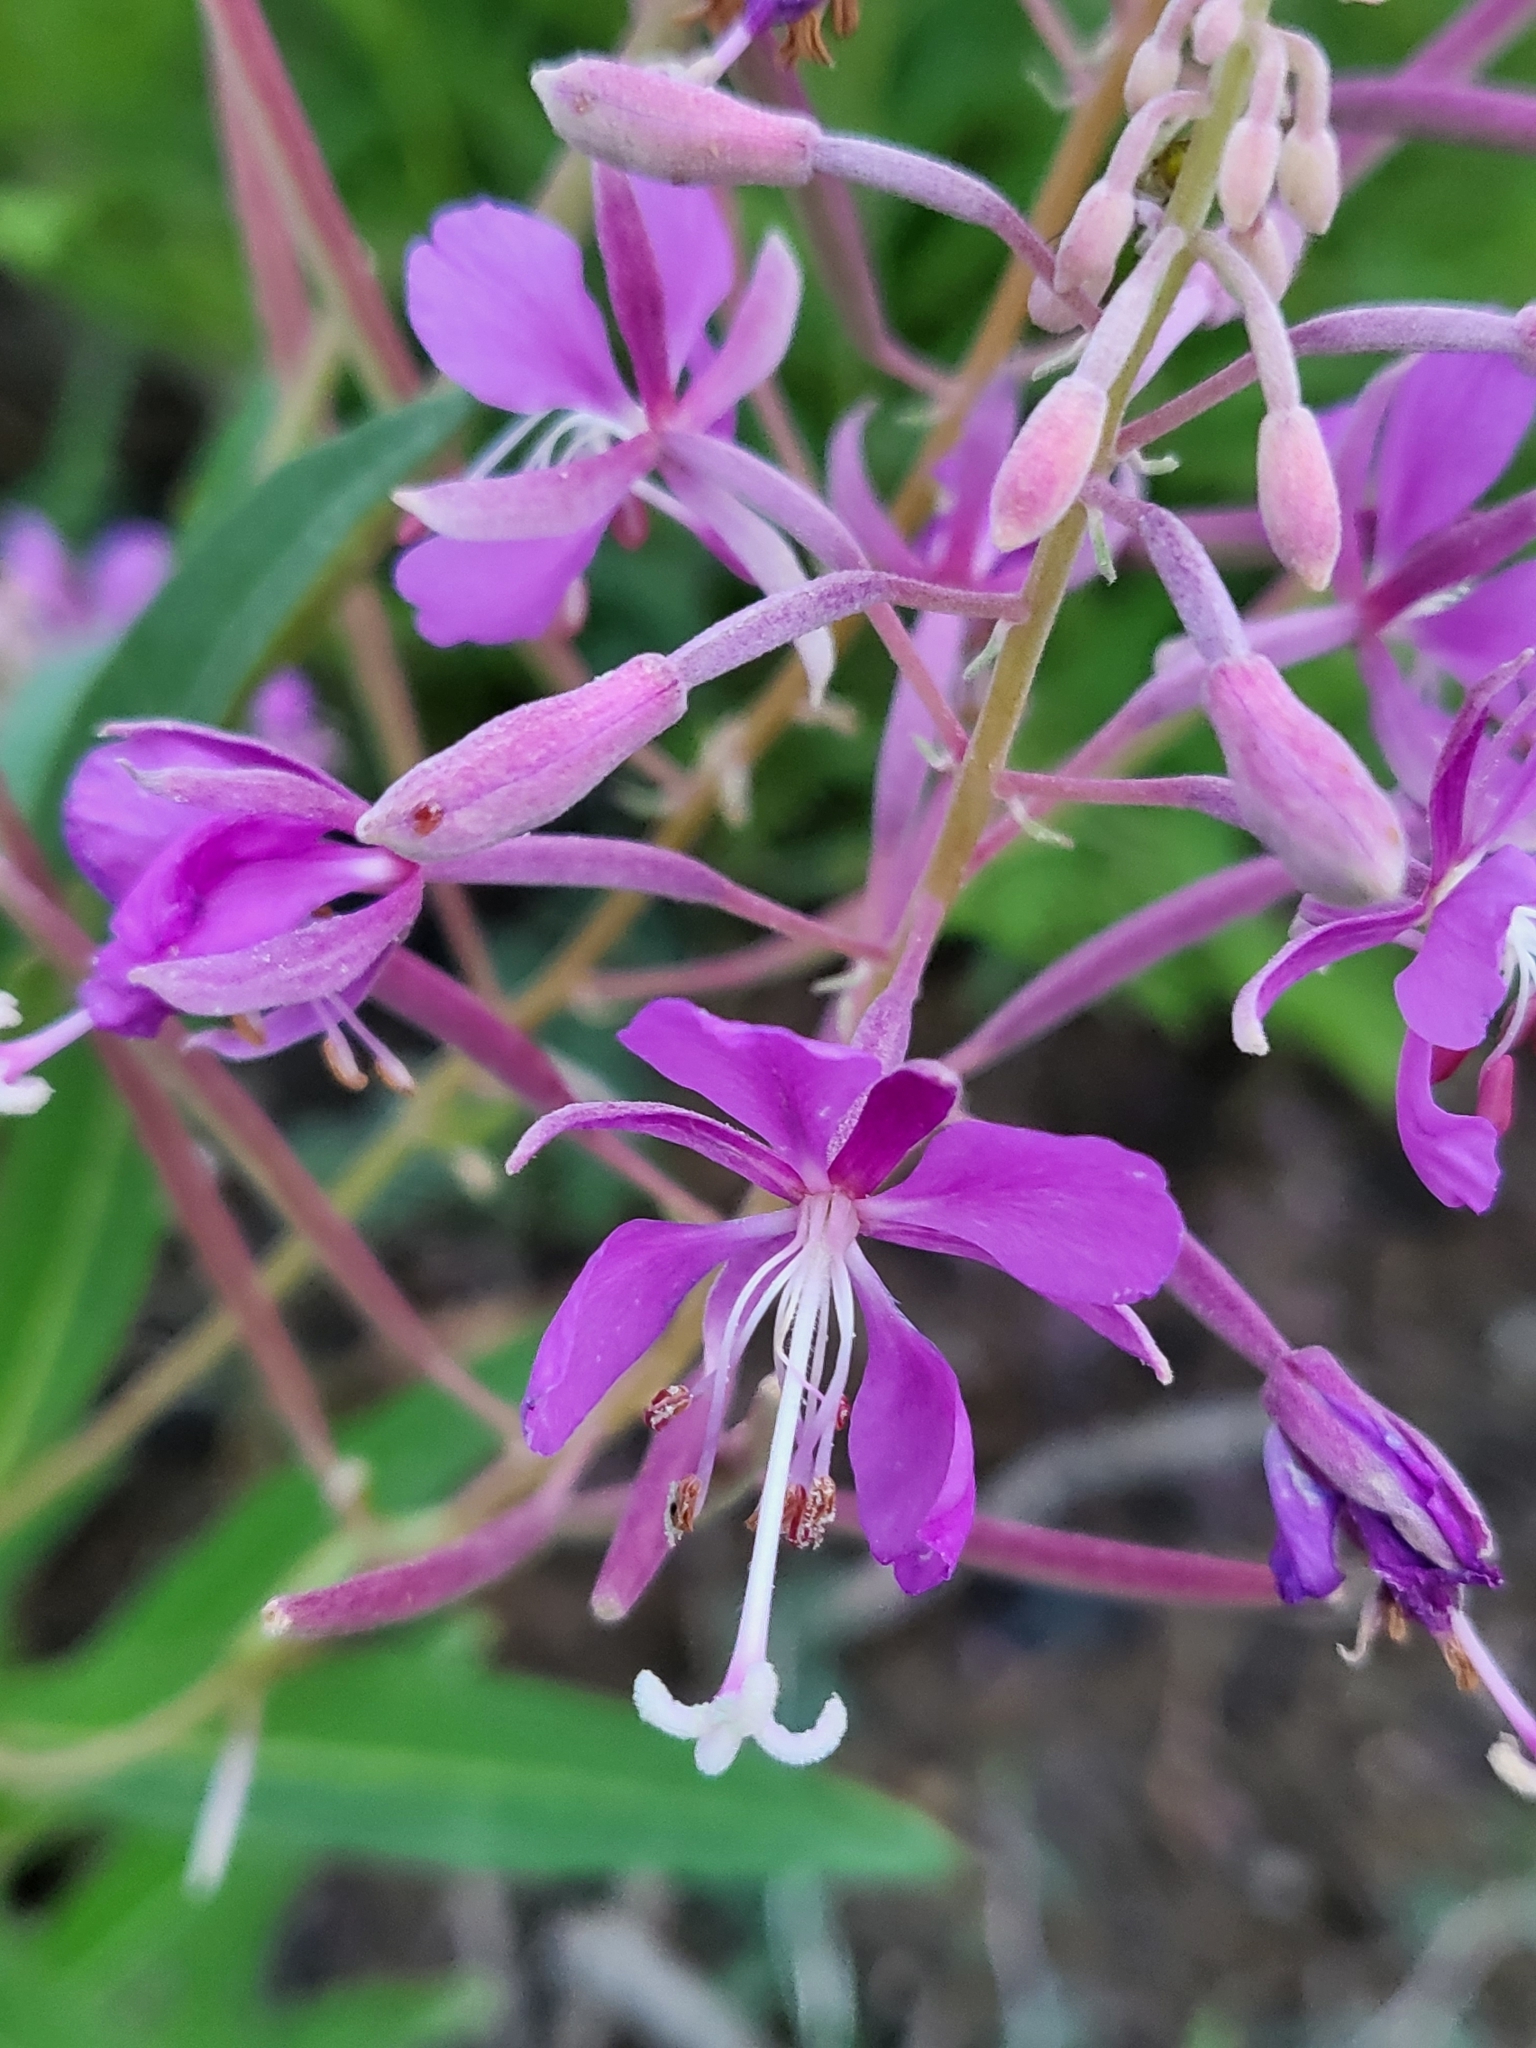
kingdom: Plantae
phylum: Tracheophyta
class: Magnoliopsida
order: Myrtales
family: Onagraceae
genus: Chamaenerion
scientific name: Chamaenerion angustifolium
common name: Fireweed
